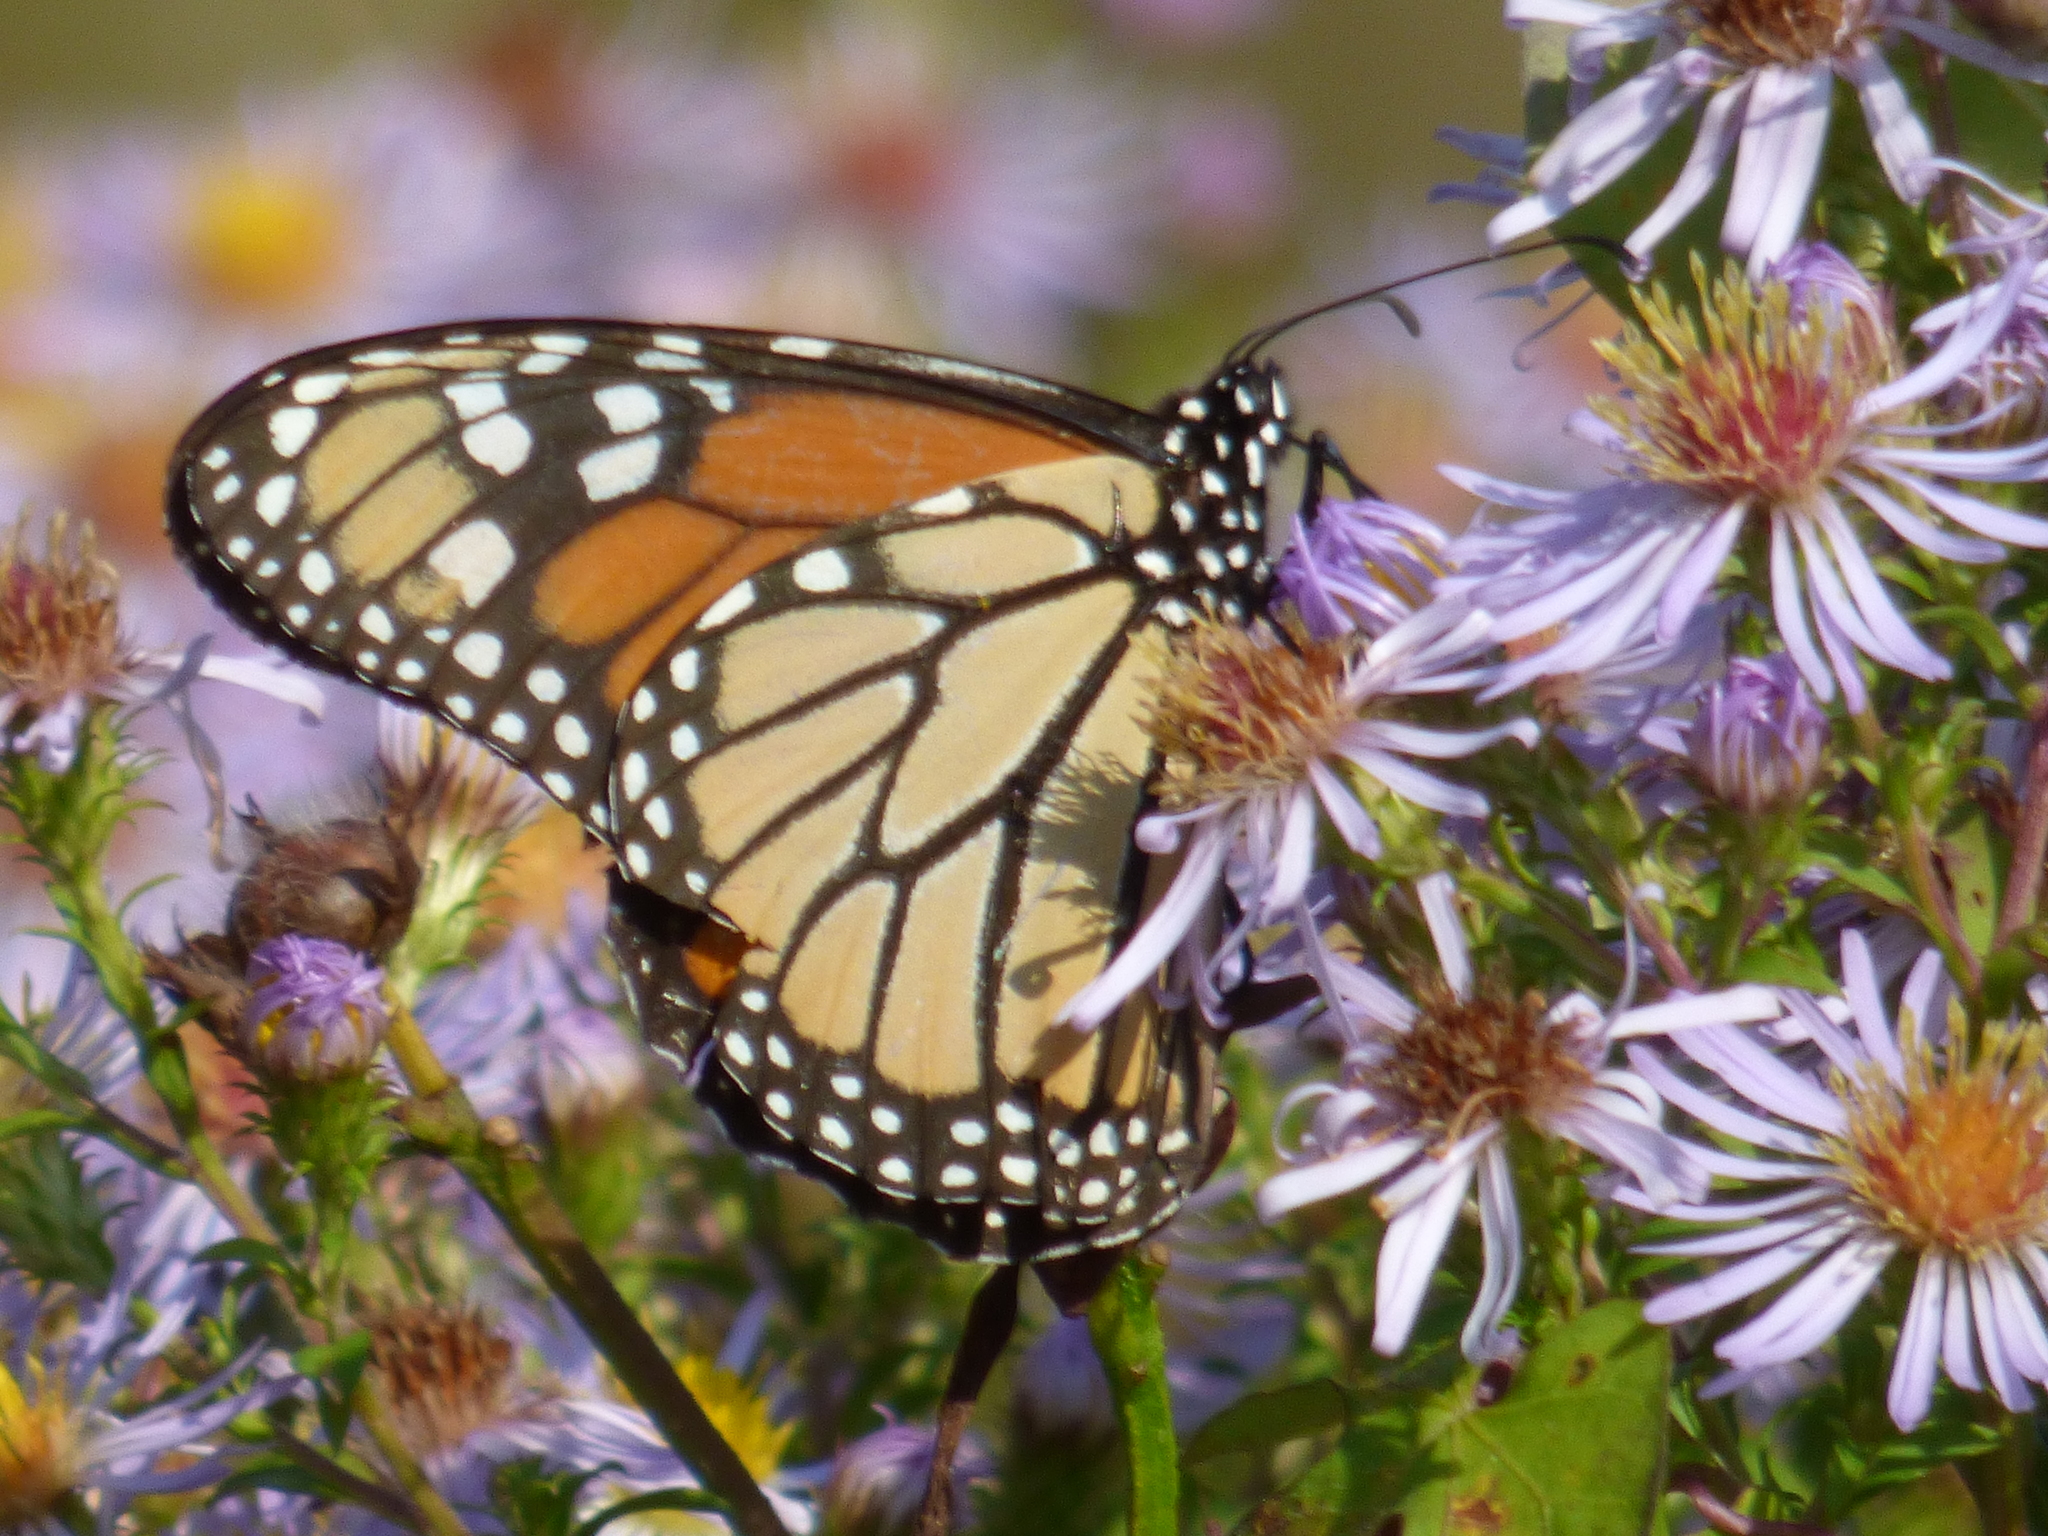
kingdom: Animalia
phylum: Arthropoda
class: Insecta
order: Lepidoptera
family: Nymphalidae
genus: Danaus
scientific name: Danaus plexippus
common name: Monarch
